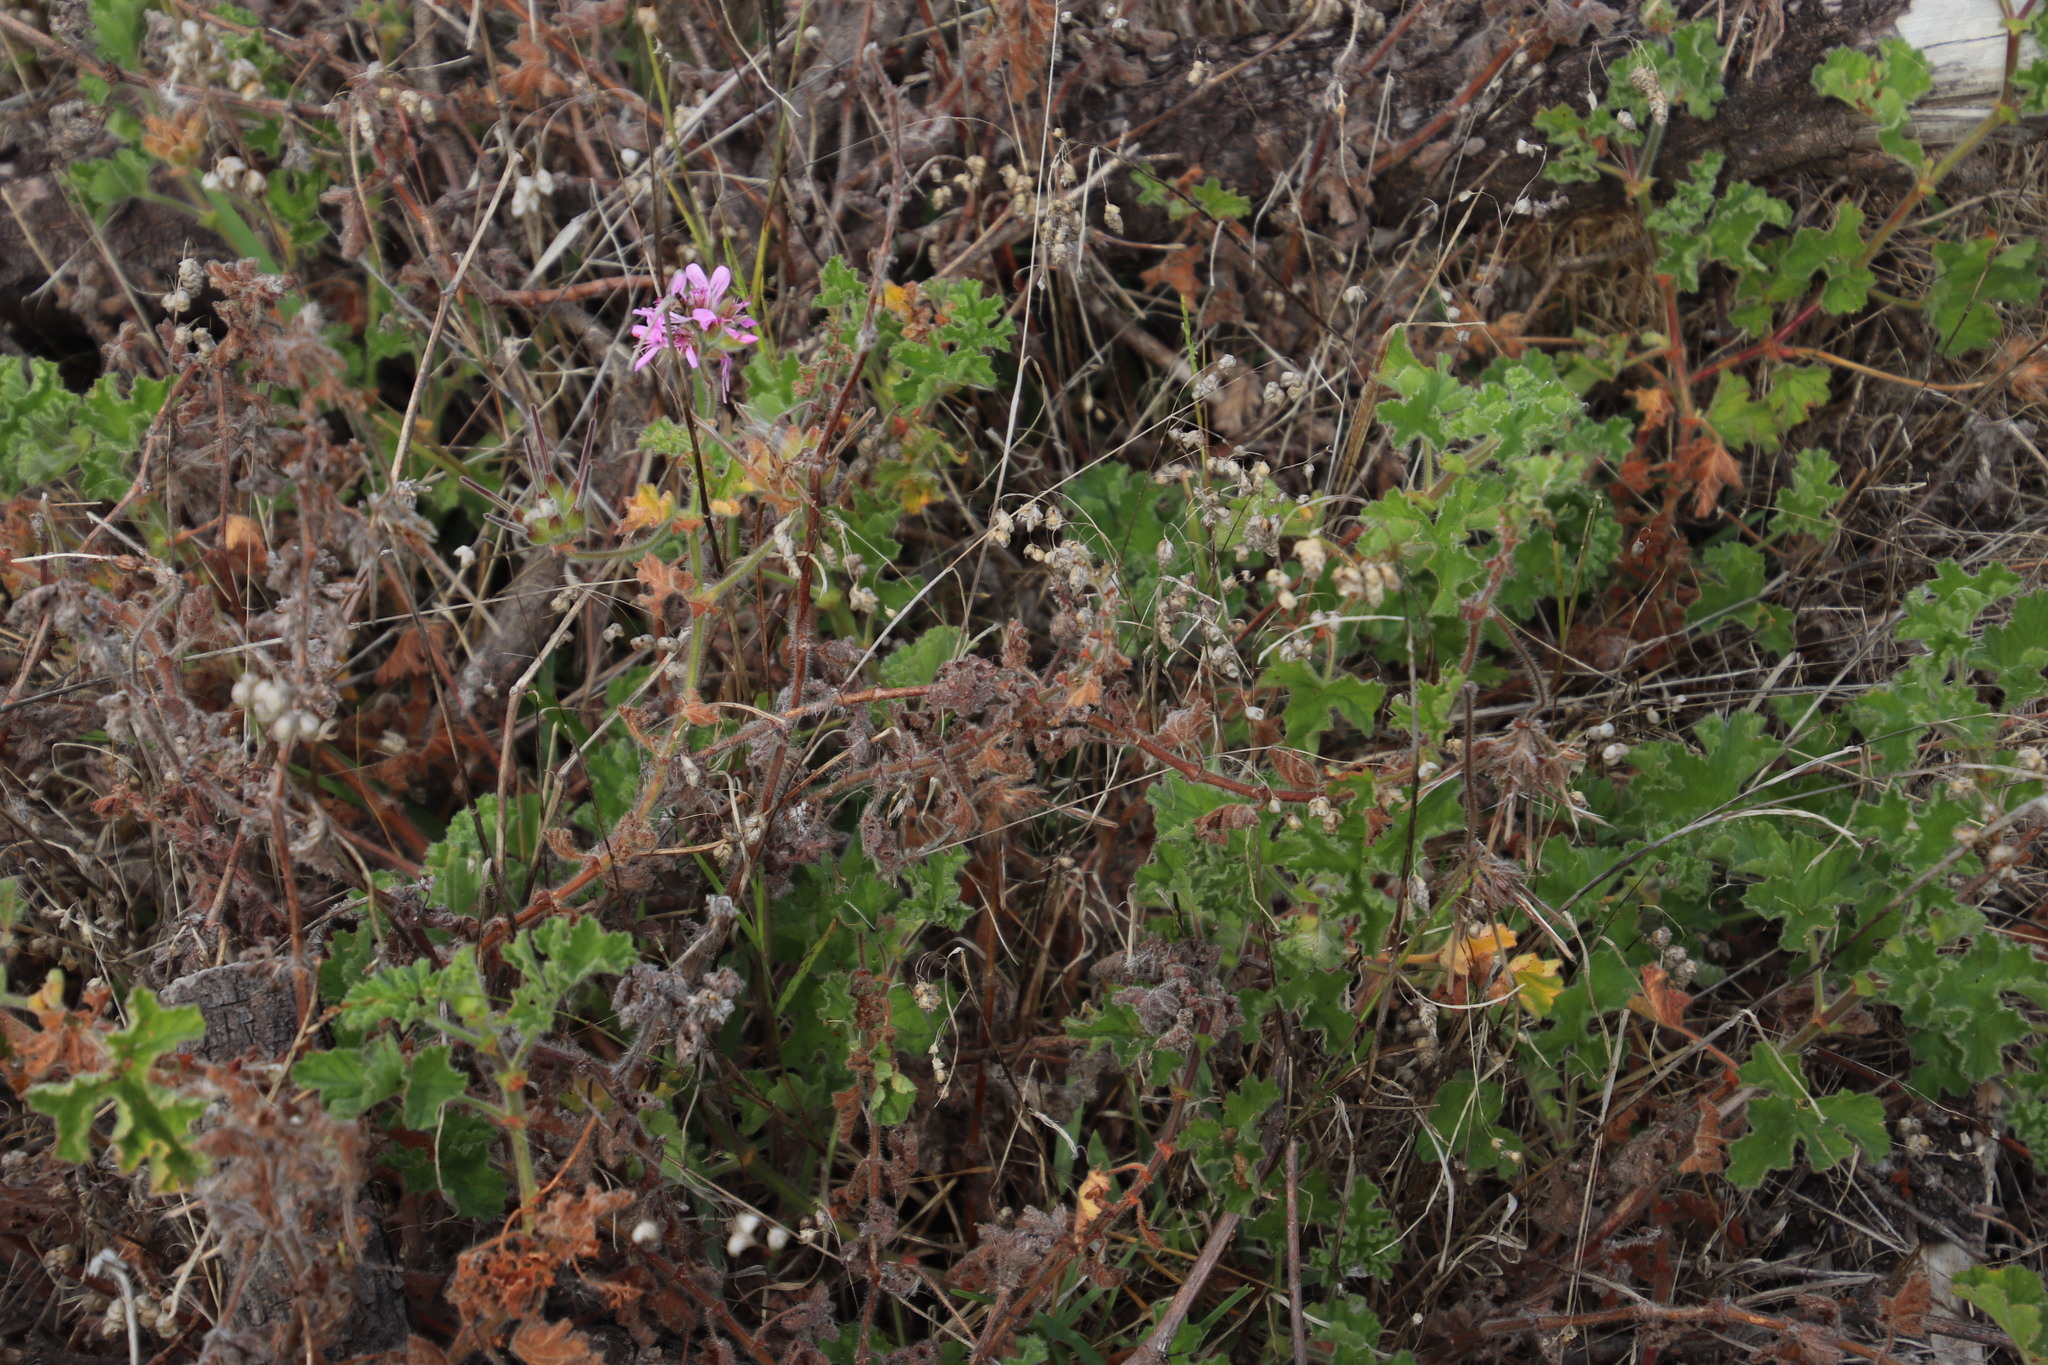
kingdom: Plantae
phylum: Tracheophyta
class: Magnoliopsida
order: Geraniales
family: Geraniaceae
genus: Pelargonium
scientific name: Pelargonium capitatum
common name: Rose scented geranium
